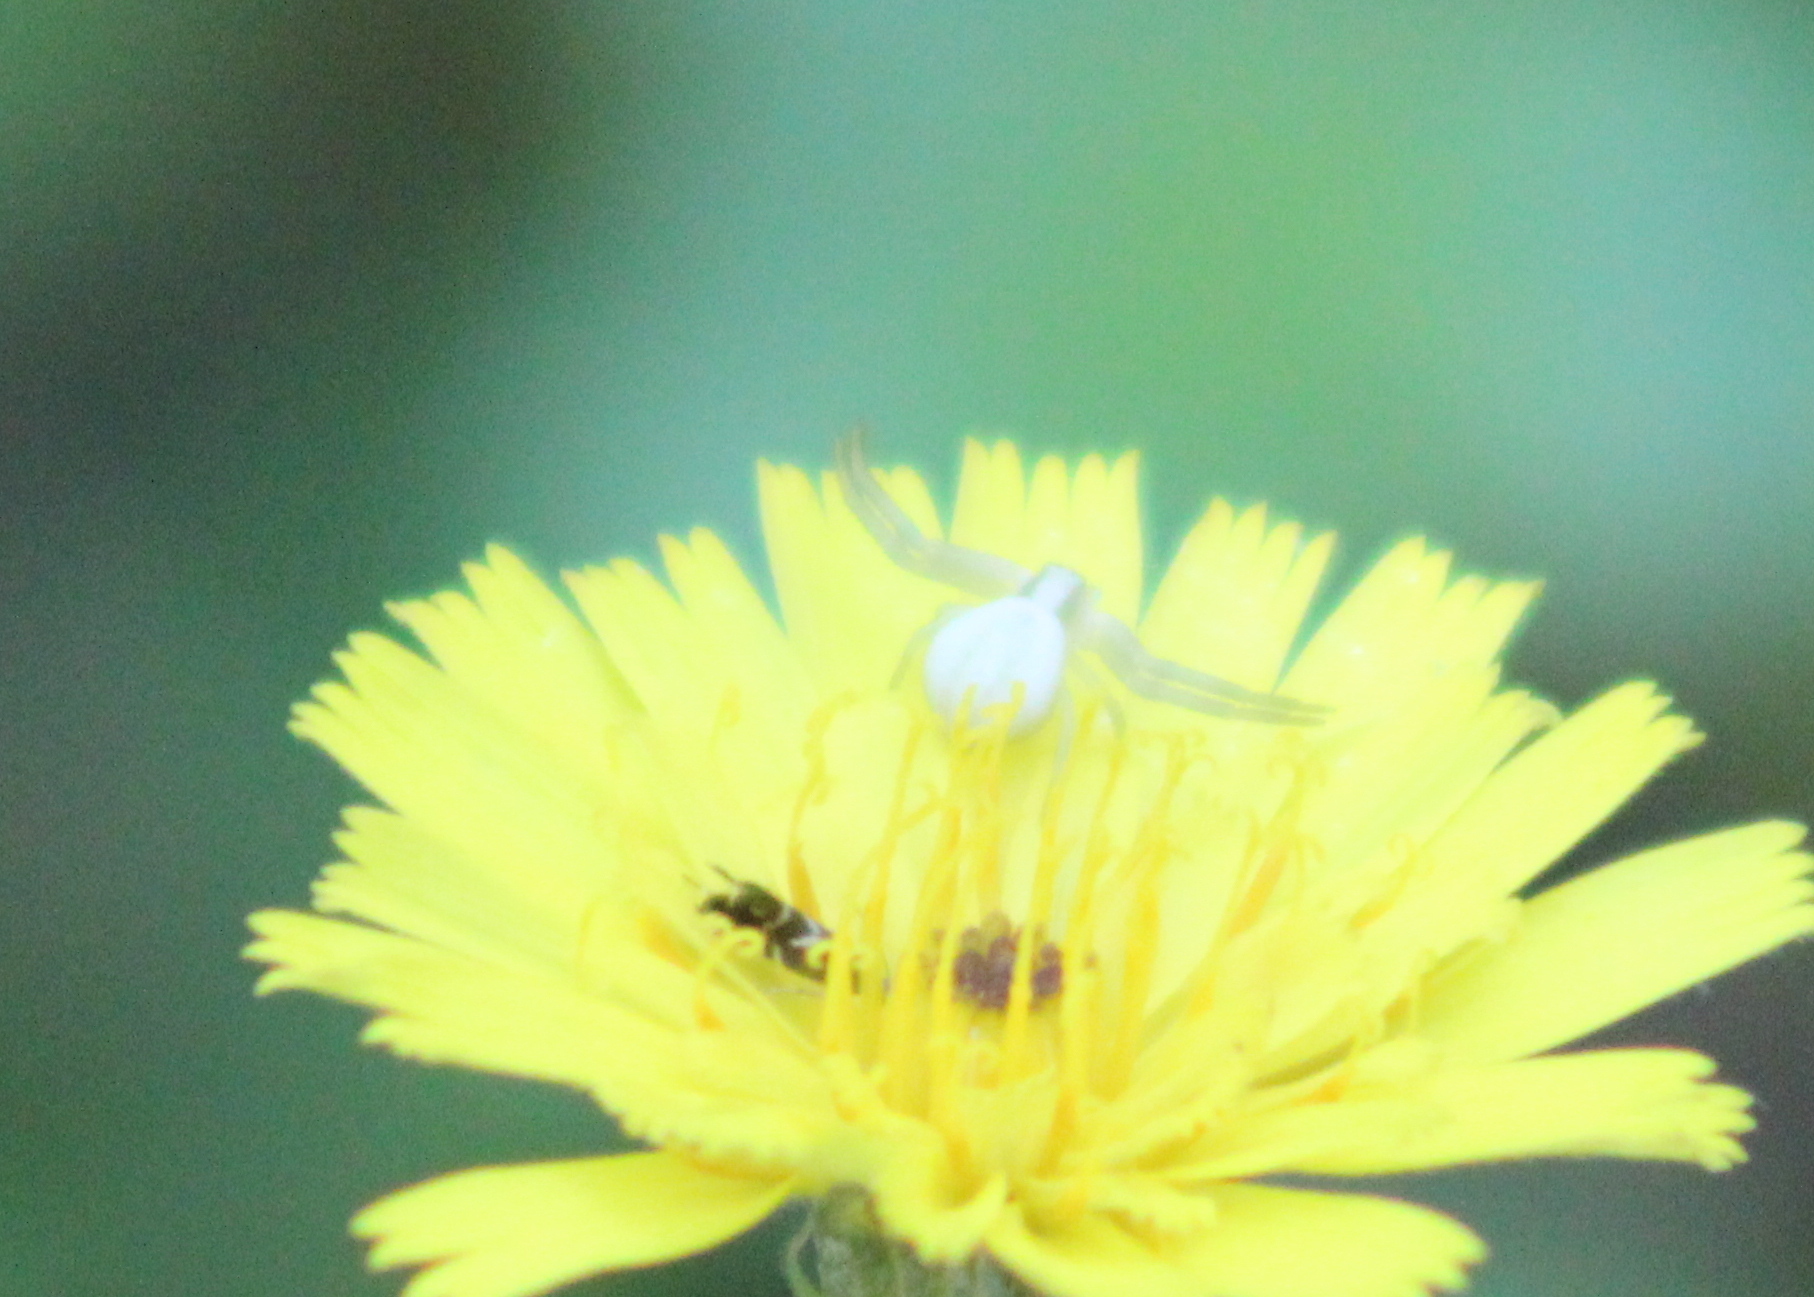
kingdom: Animalia
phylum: Arthropoda
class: Arachnida
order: Araneae
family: Thomisidae
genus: Misumena
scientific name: Misumena vatia
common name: Goldenrod crab spider
